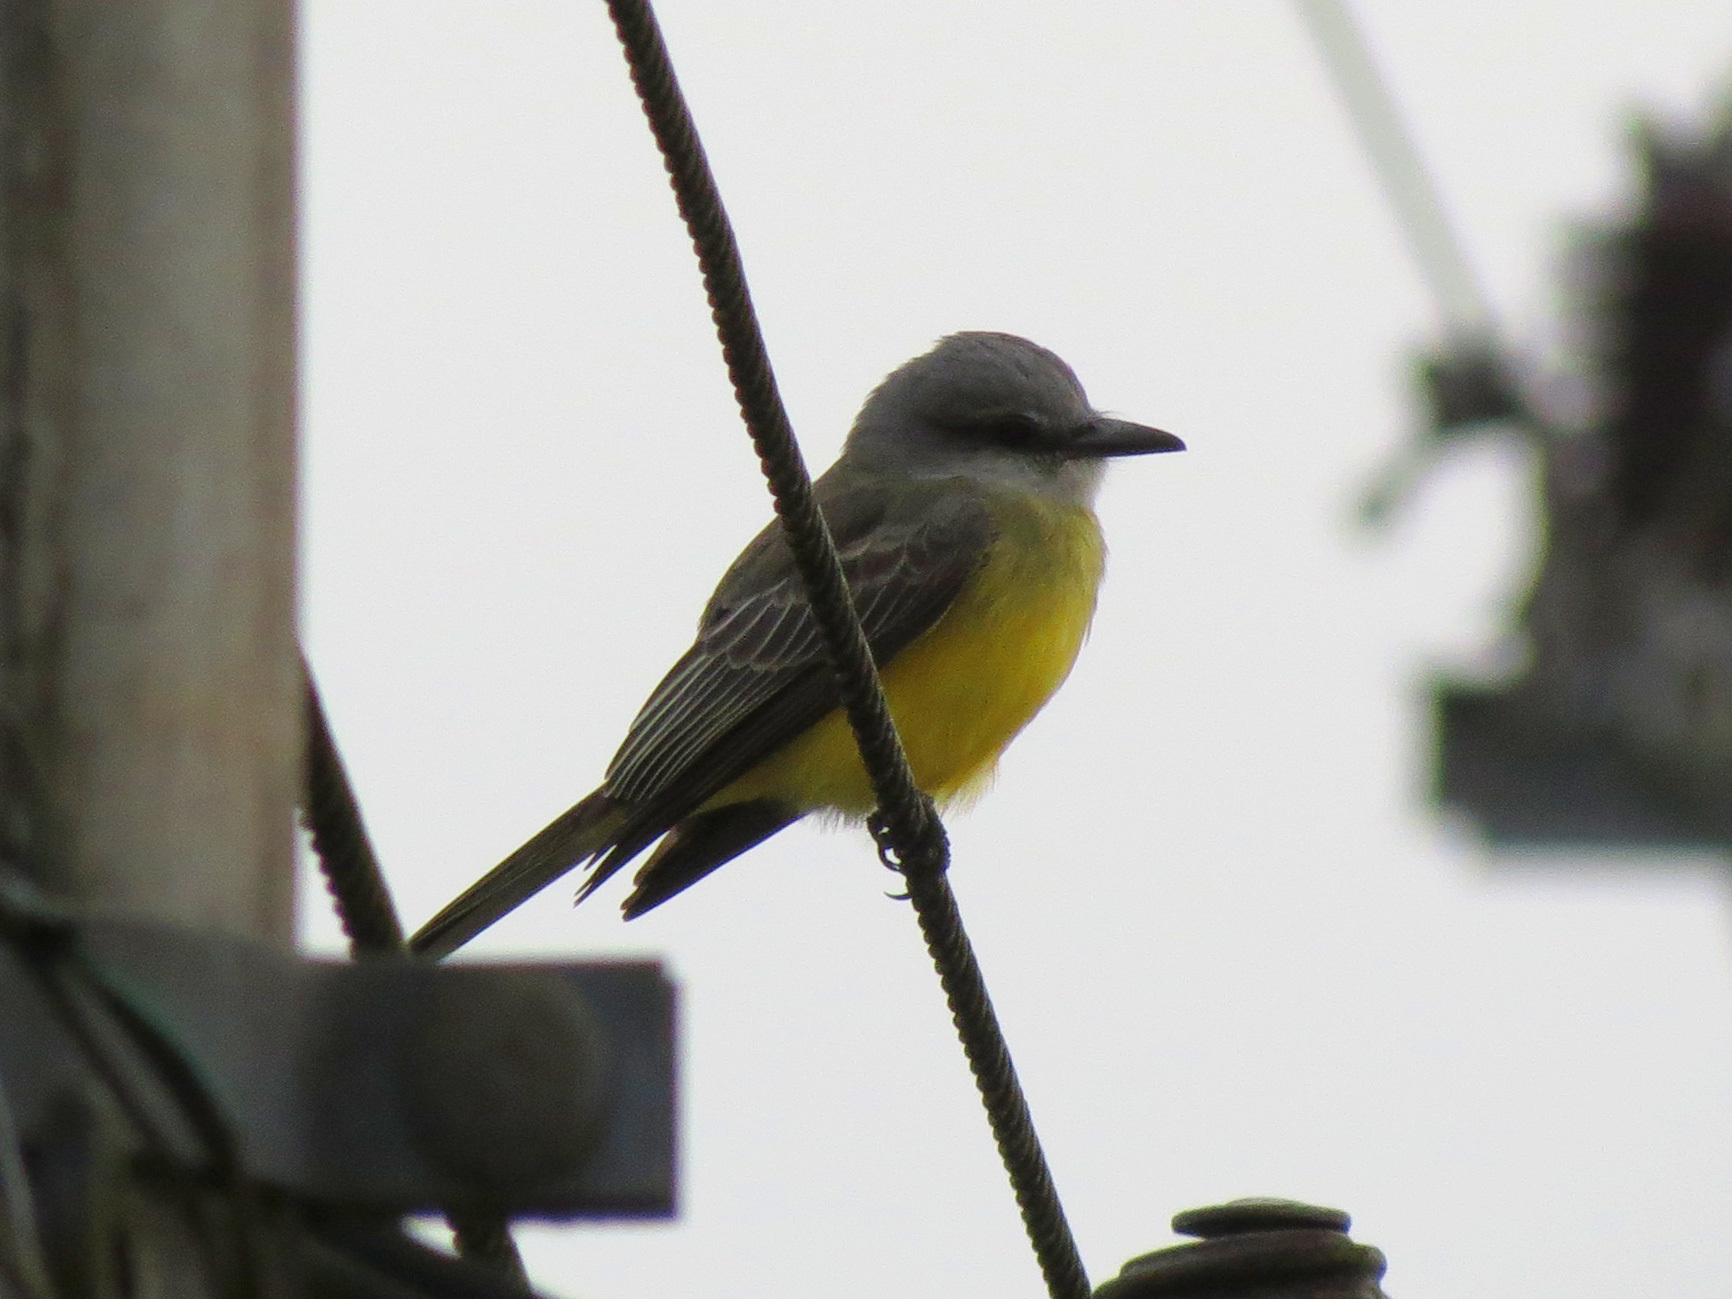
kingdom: Animalia
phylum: Chordata
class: Aves
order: Passeriformes
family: Tyrannidae
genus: Tyrannus
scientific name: Tyrannus melancholicus
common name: Tropical kingbird
